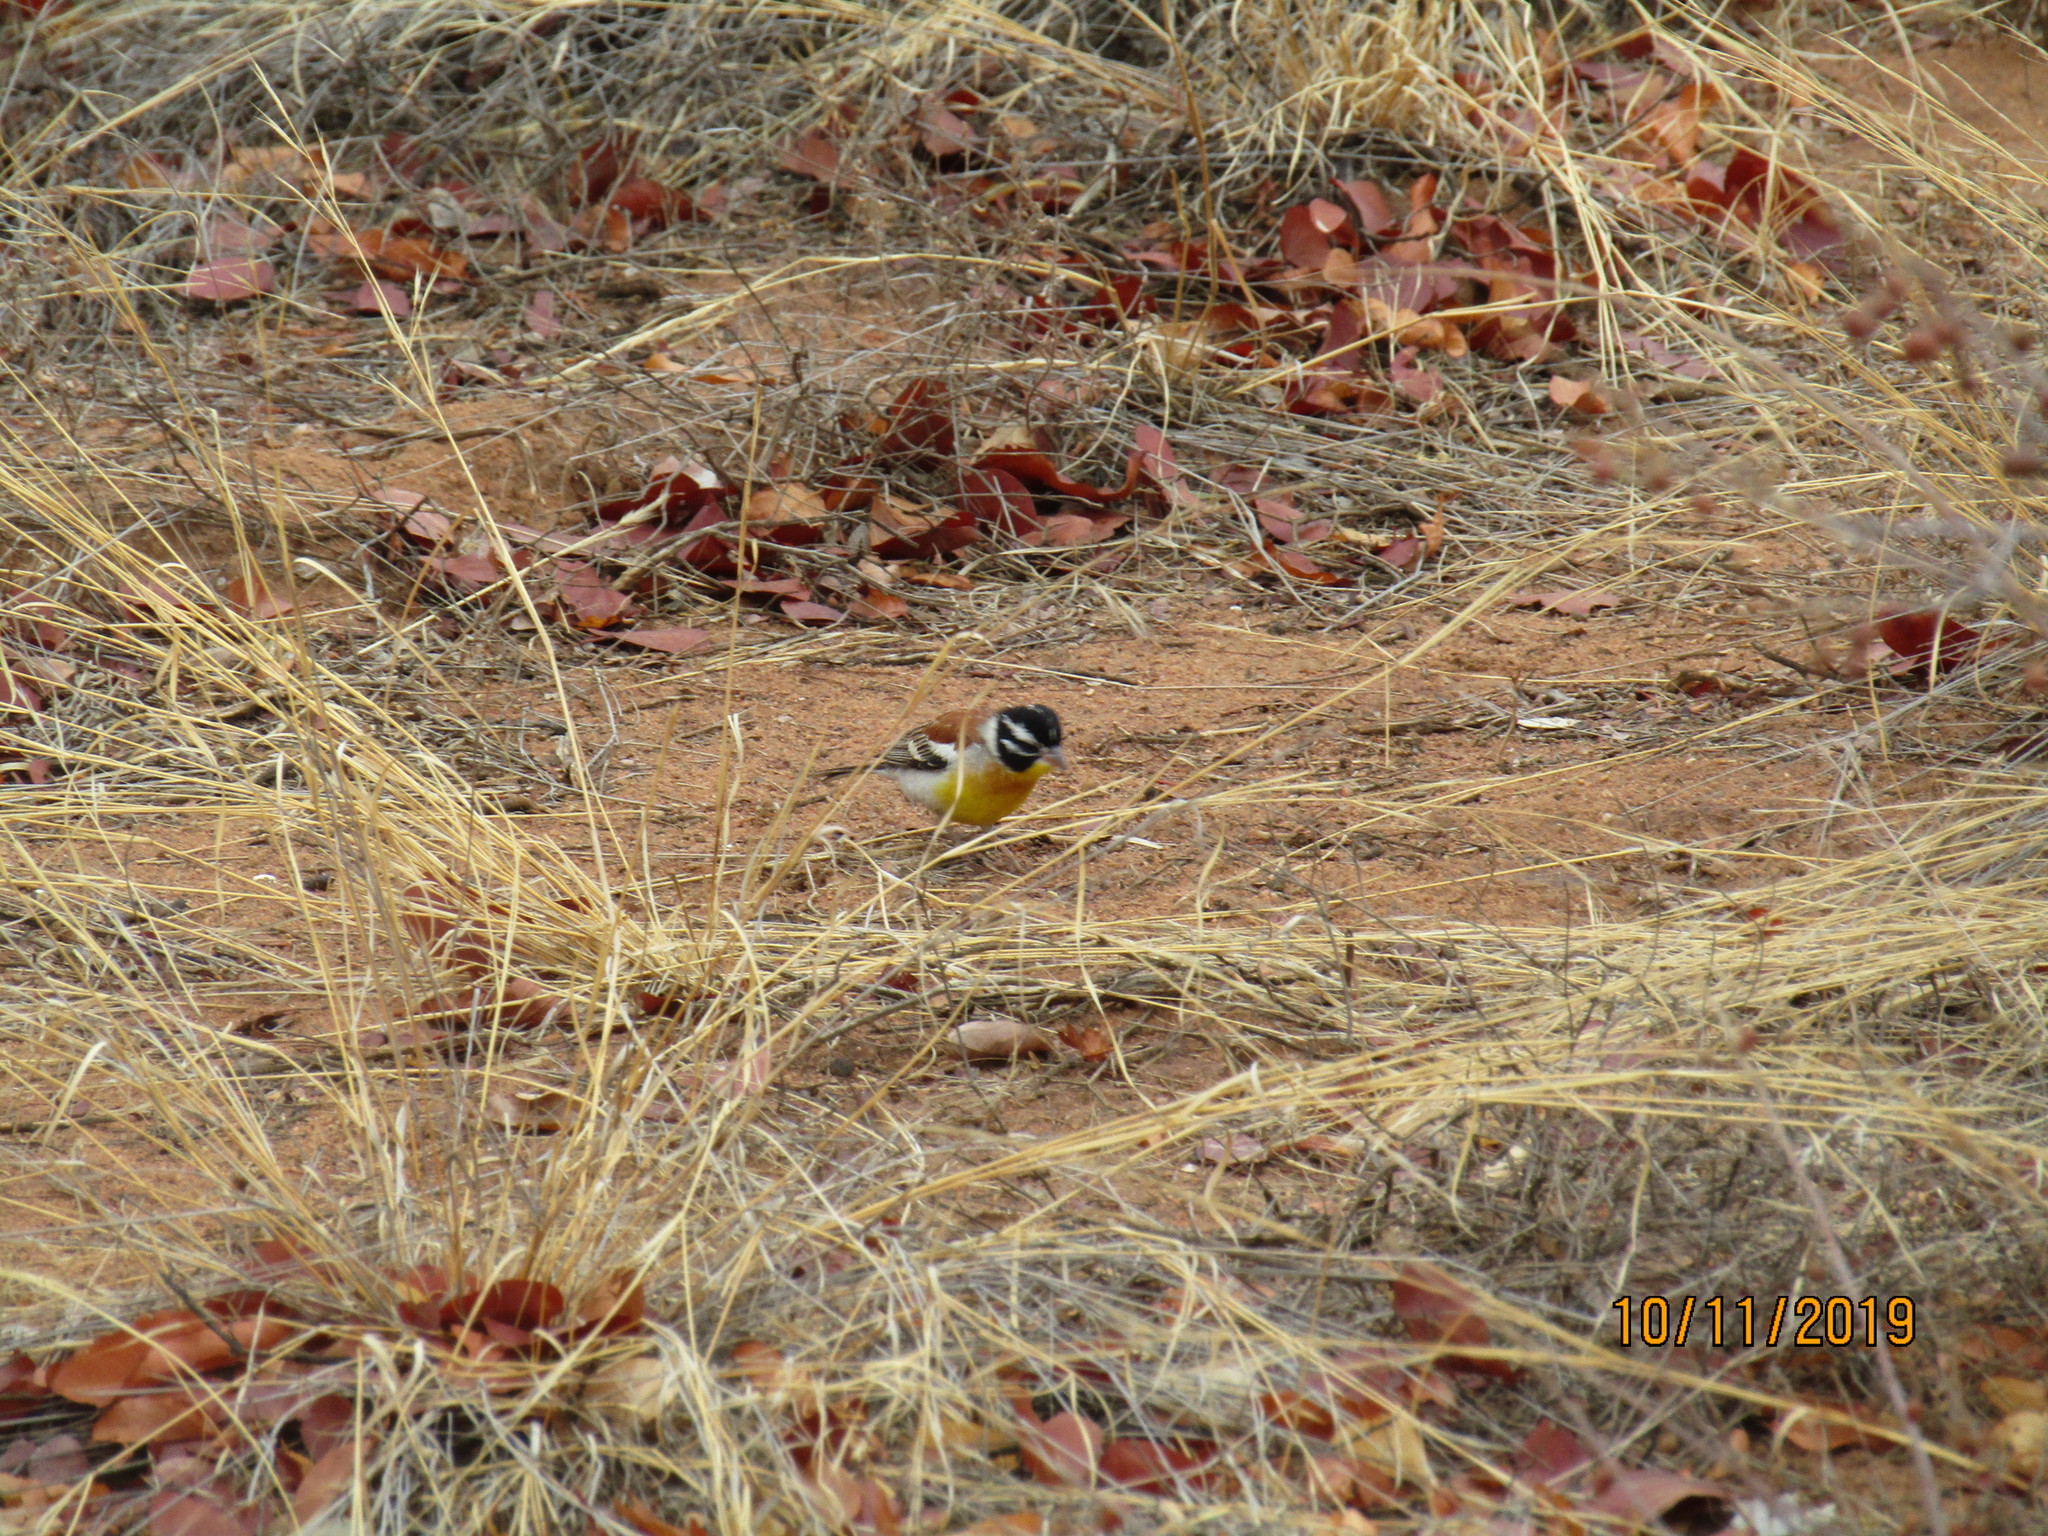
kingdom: Animalia
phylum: Chordata
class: Aves
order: Passeriformes
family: Emberizidae
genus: Emberiza
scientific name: Emberiza flaviventris
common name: Golden-breasted bunting
